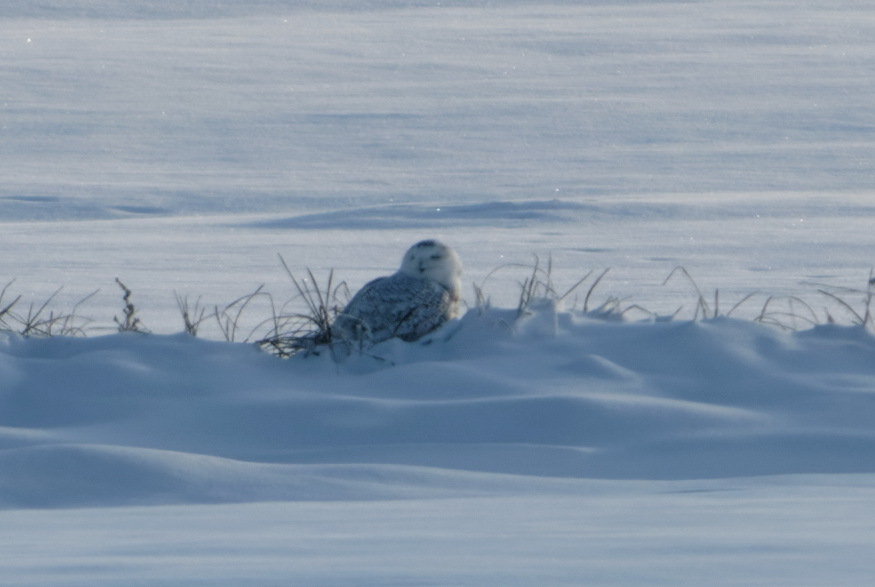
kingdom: Animalia
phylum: Chordata
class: Aves
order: Strigiformes
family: Strigidae
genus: Bubo
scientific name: Bubo scandiacus
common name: Snowy owl
